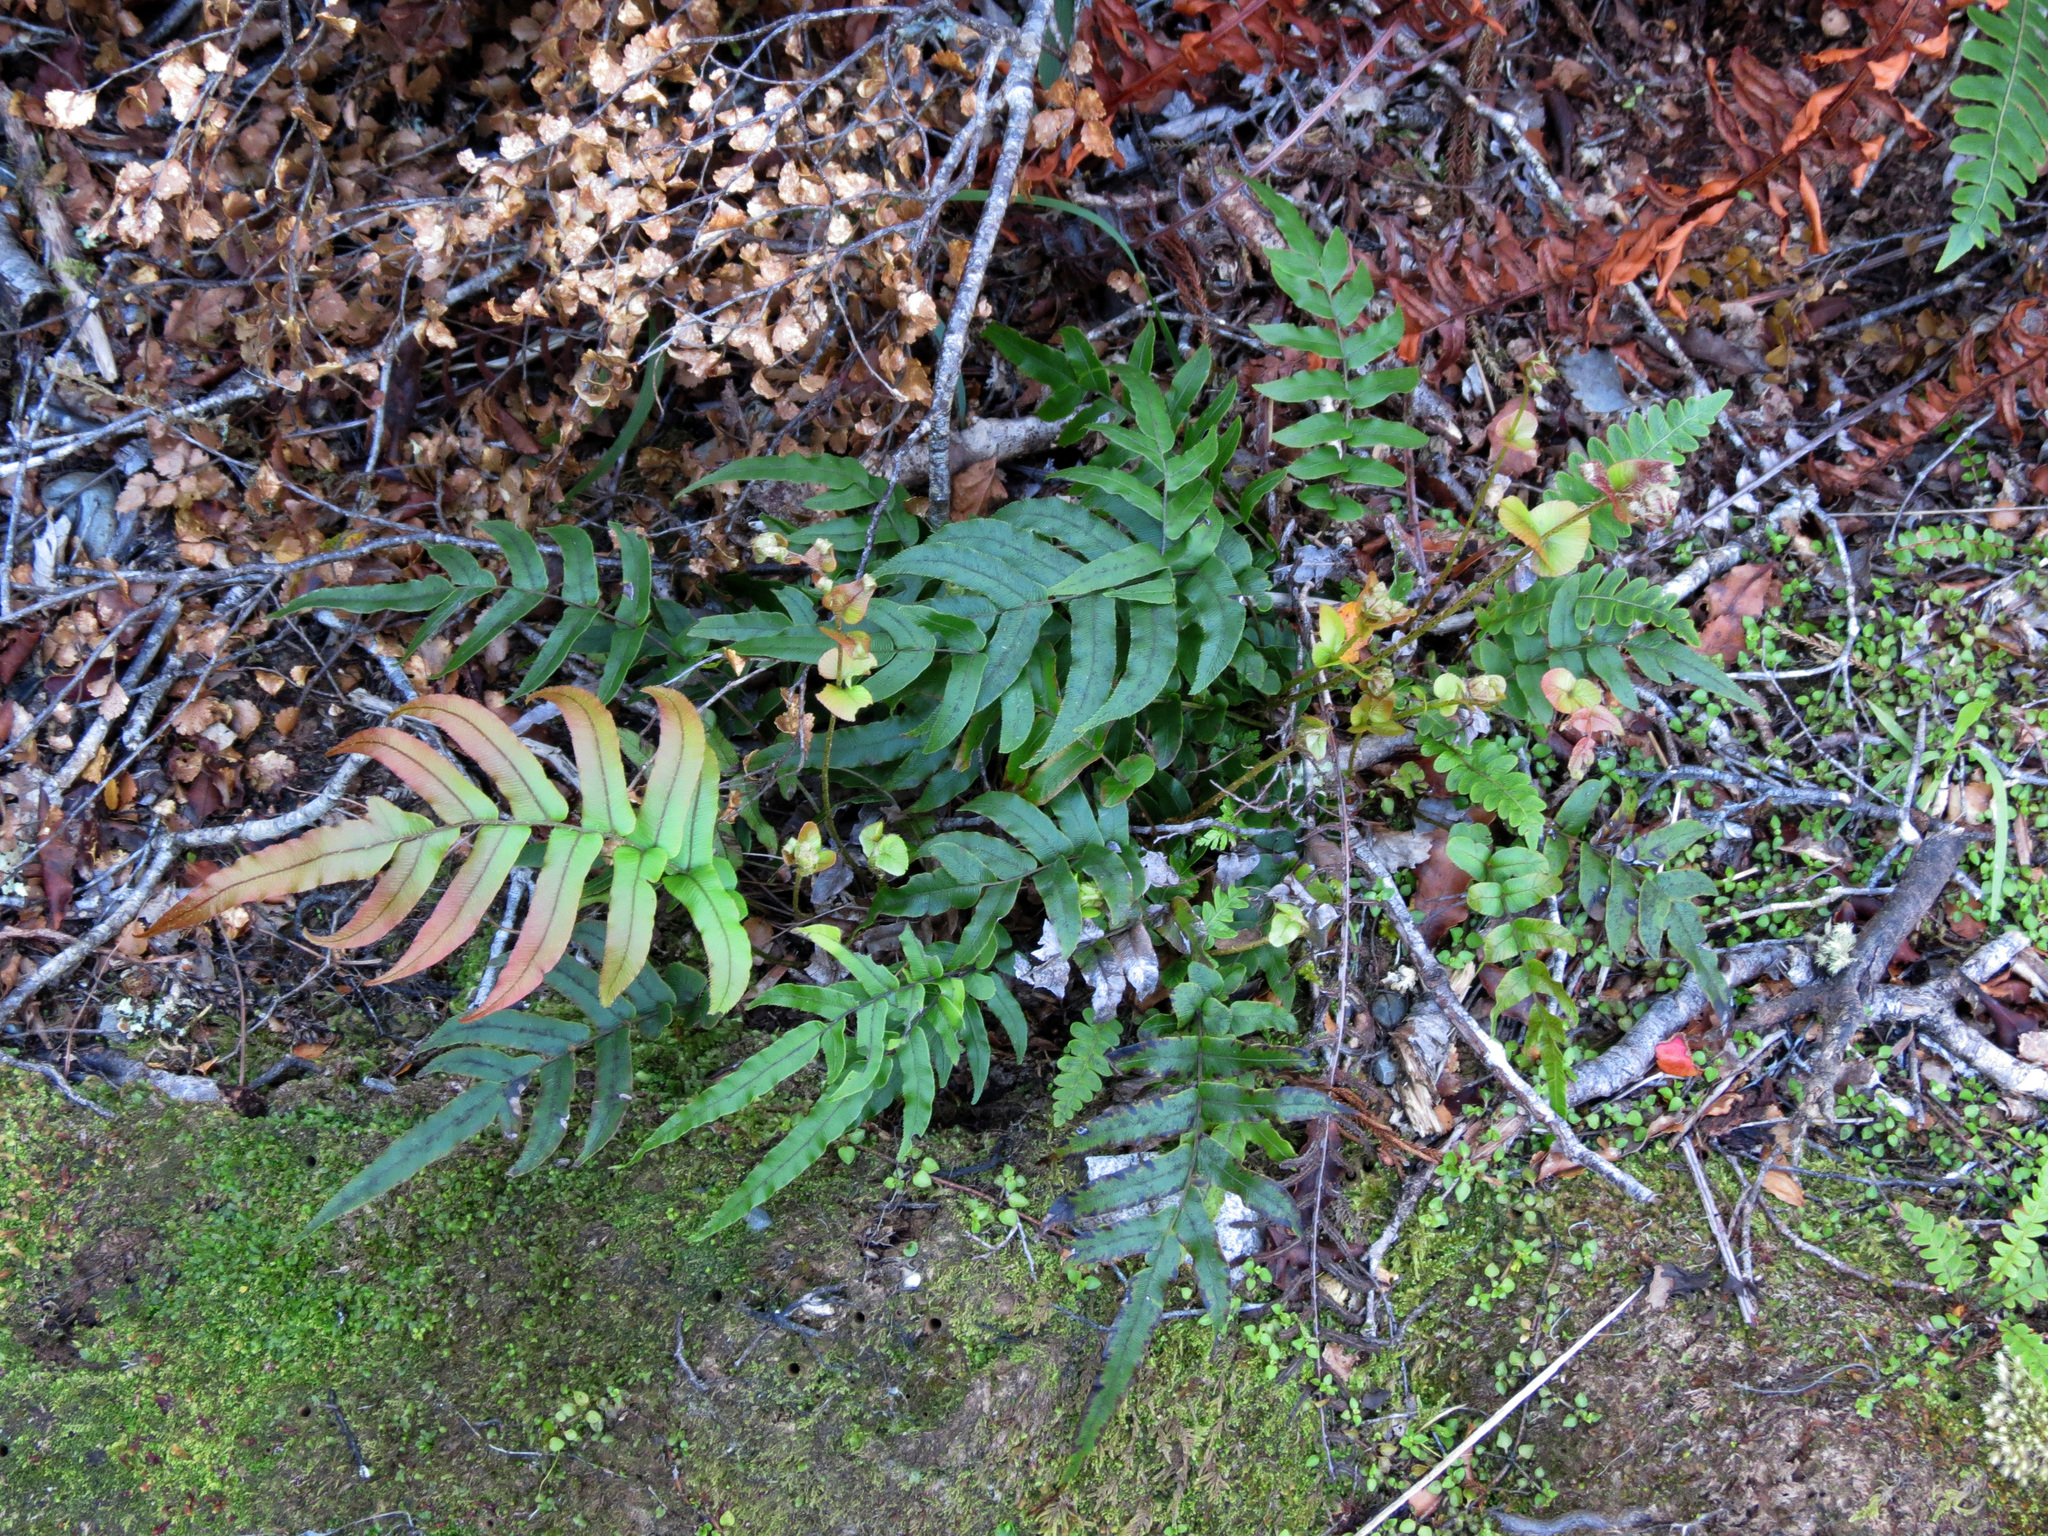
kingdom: Plantae
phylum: Tracheophyta
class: Polypodiopsida
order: Polypodiales
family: Blechnaceae
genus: Parablechnum
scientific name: Parablechnum novae-zelandiae
